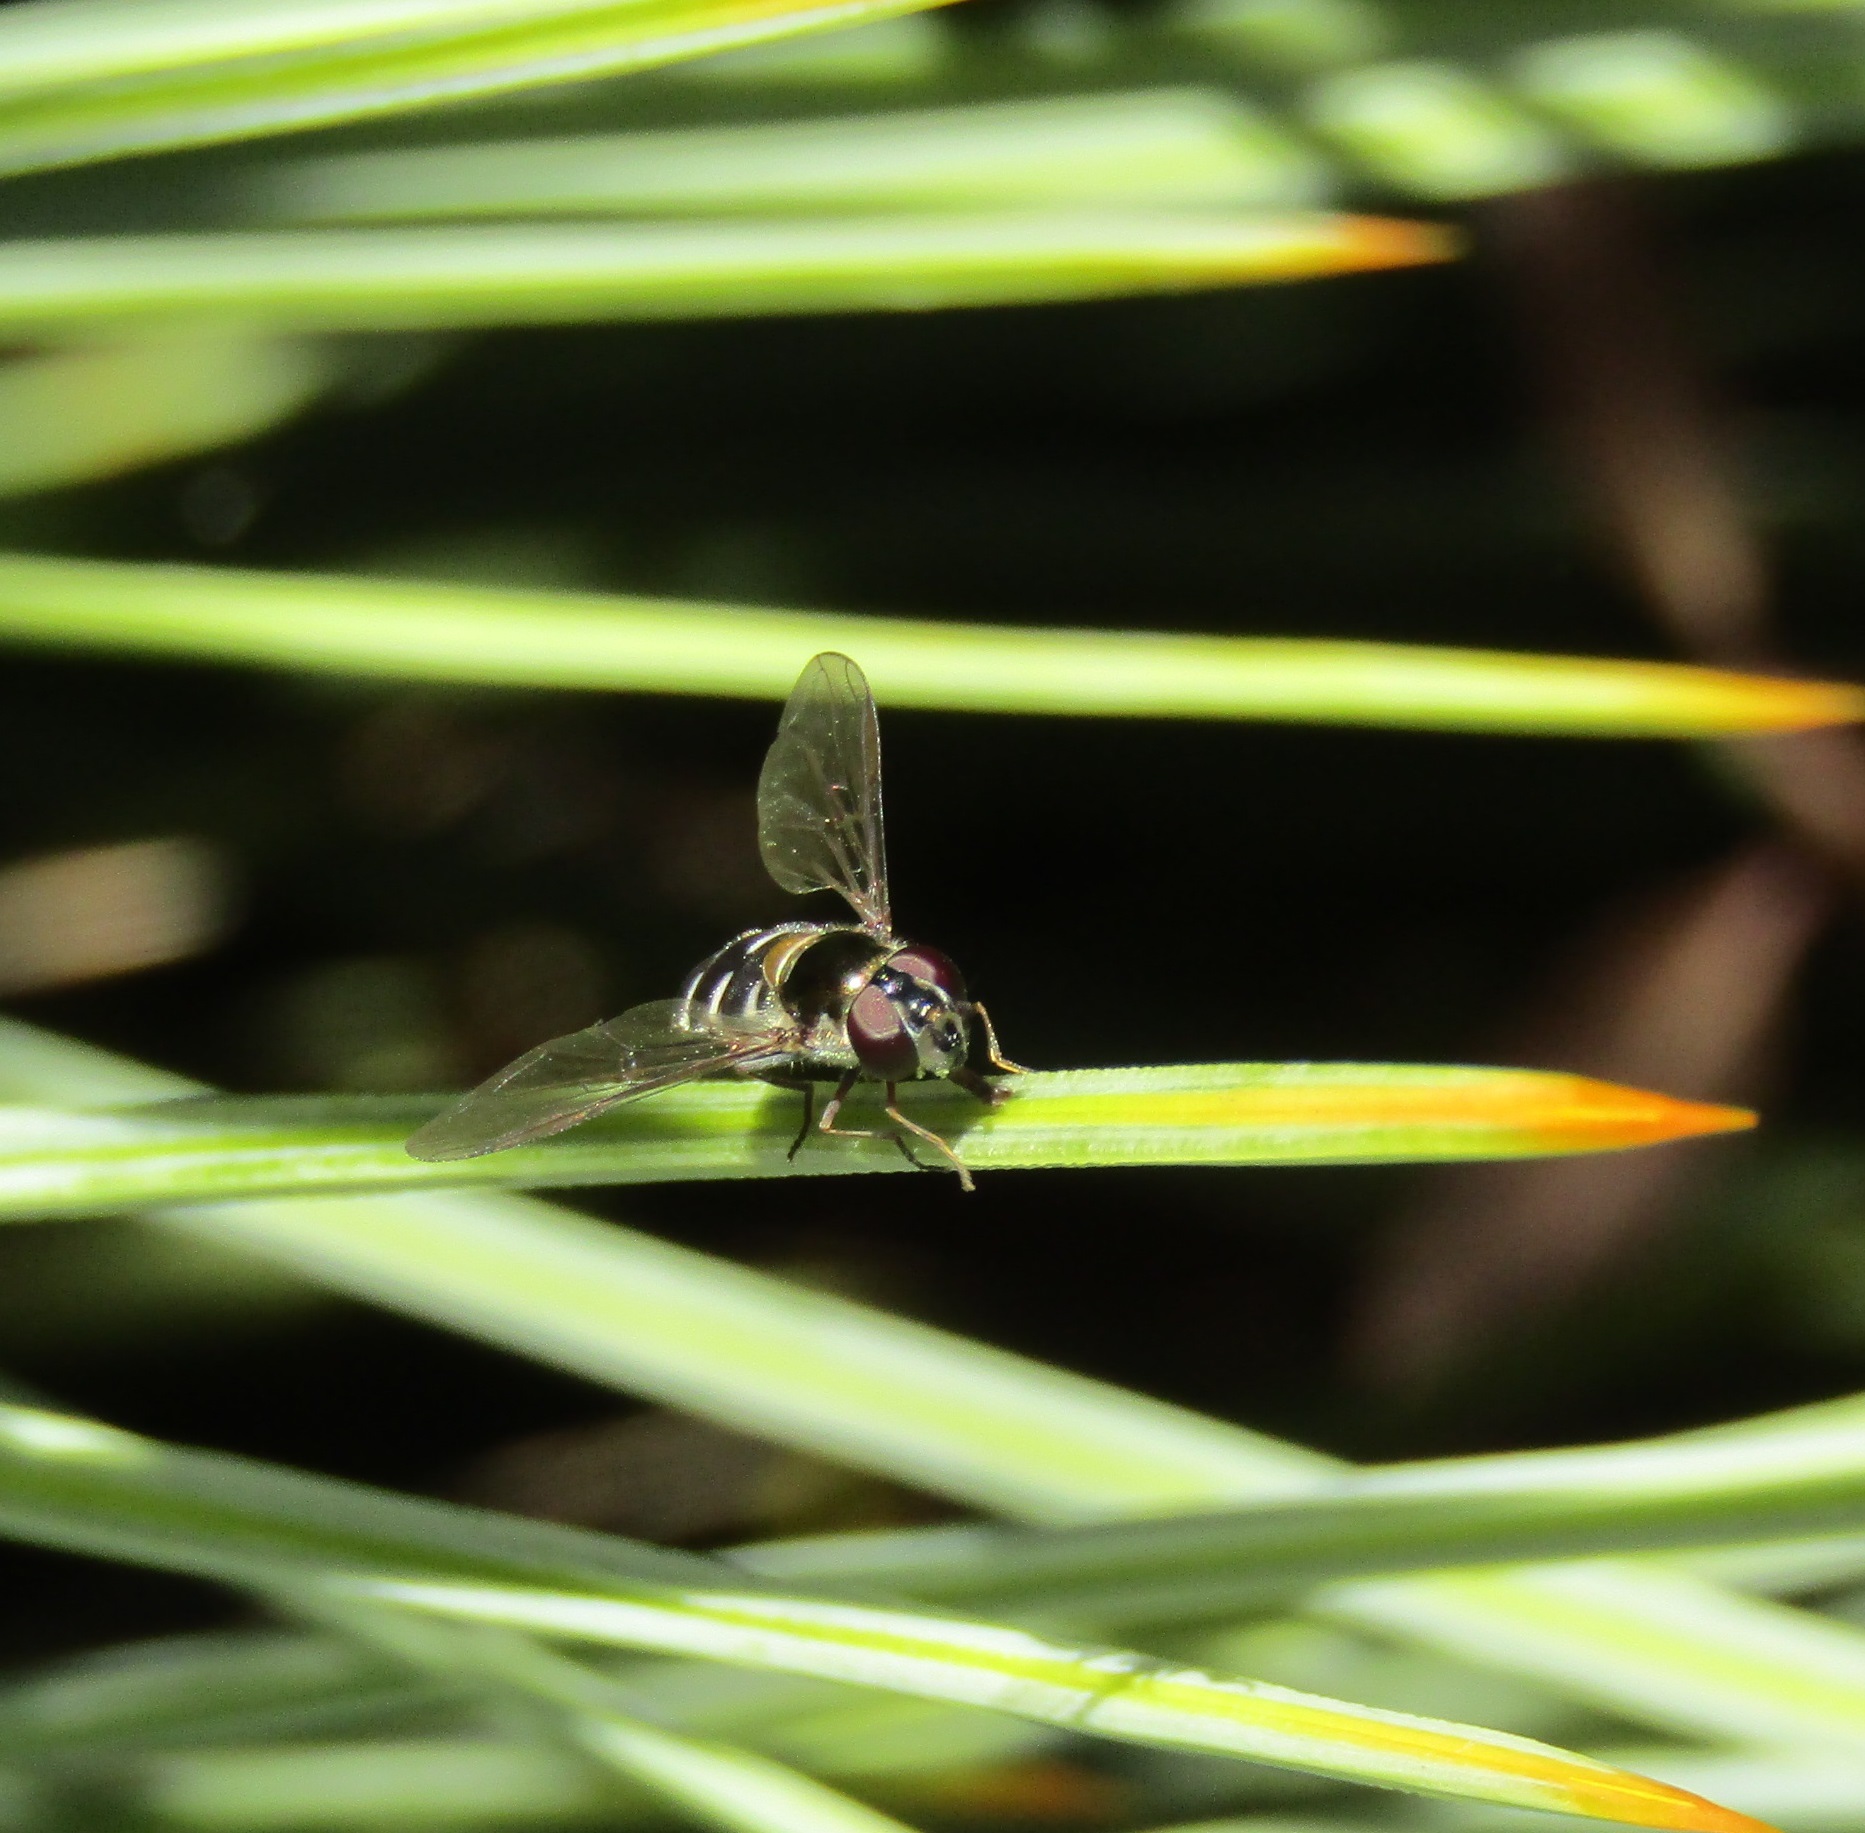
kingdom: Animalia
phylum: Arthropoda
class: Insecta
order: Diptera
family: Syrphidae
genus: Melangyna
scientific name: Melangyna novaezelandiae
